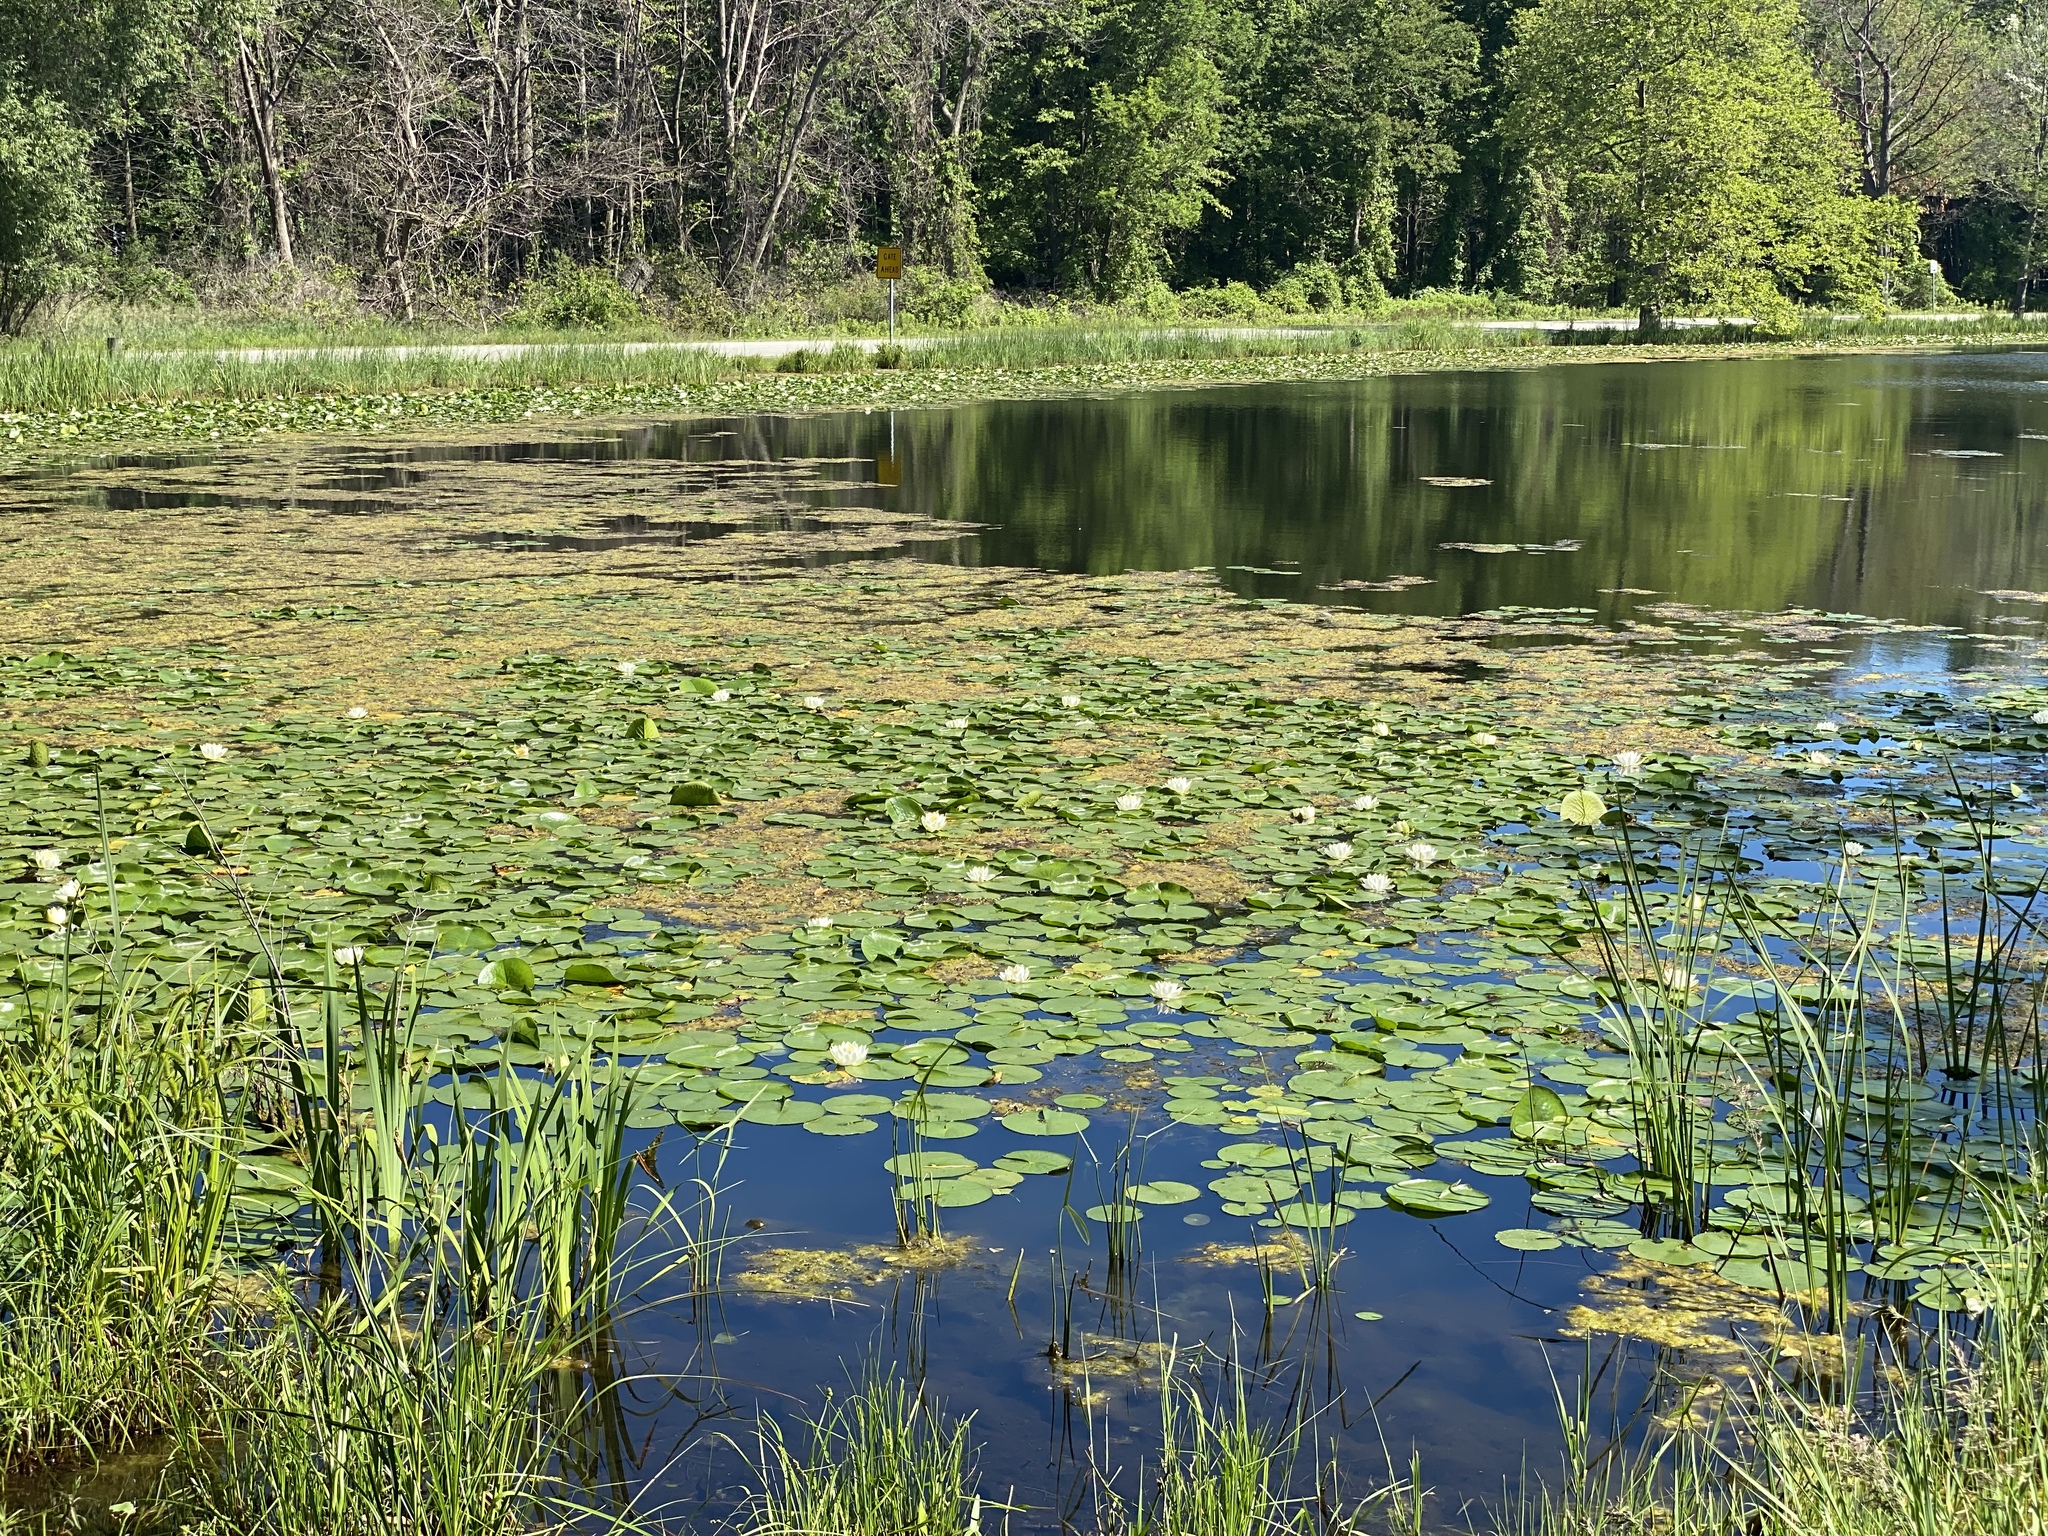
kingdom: Plantae
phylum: Tracheophyta
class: Magnoliopsida
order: Nymphaeales
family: Nymphaeaceae
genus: Nymphaea
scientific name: Nymphaea odorata
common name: Fragrant water-lily
